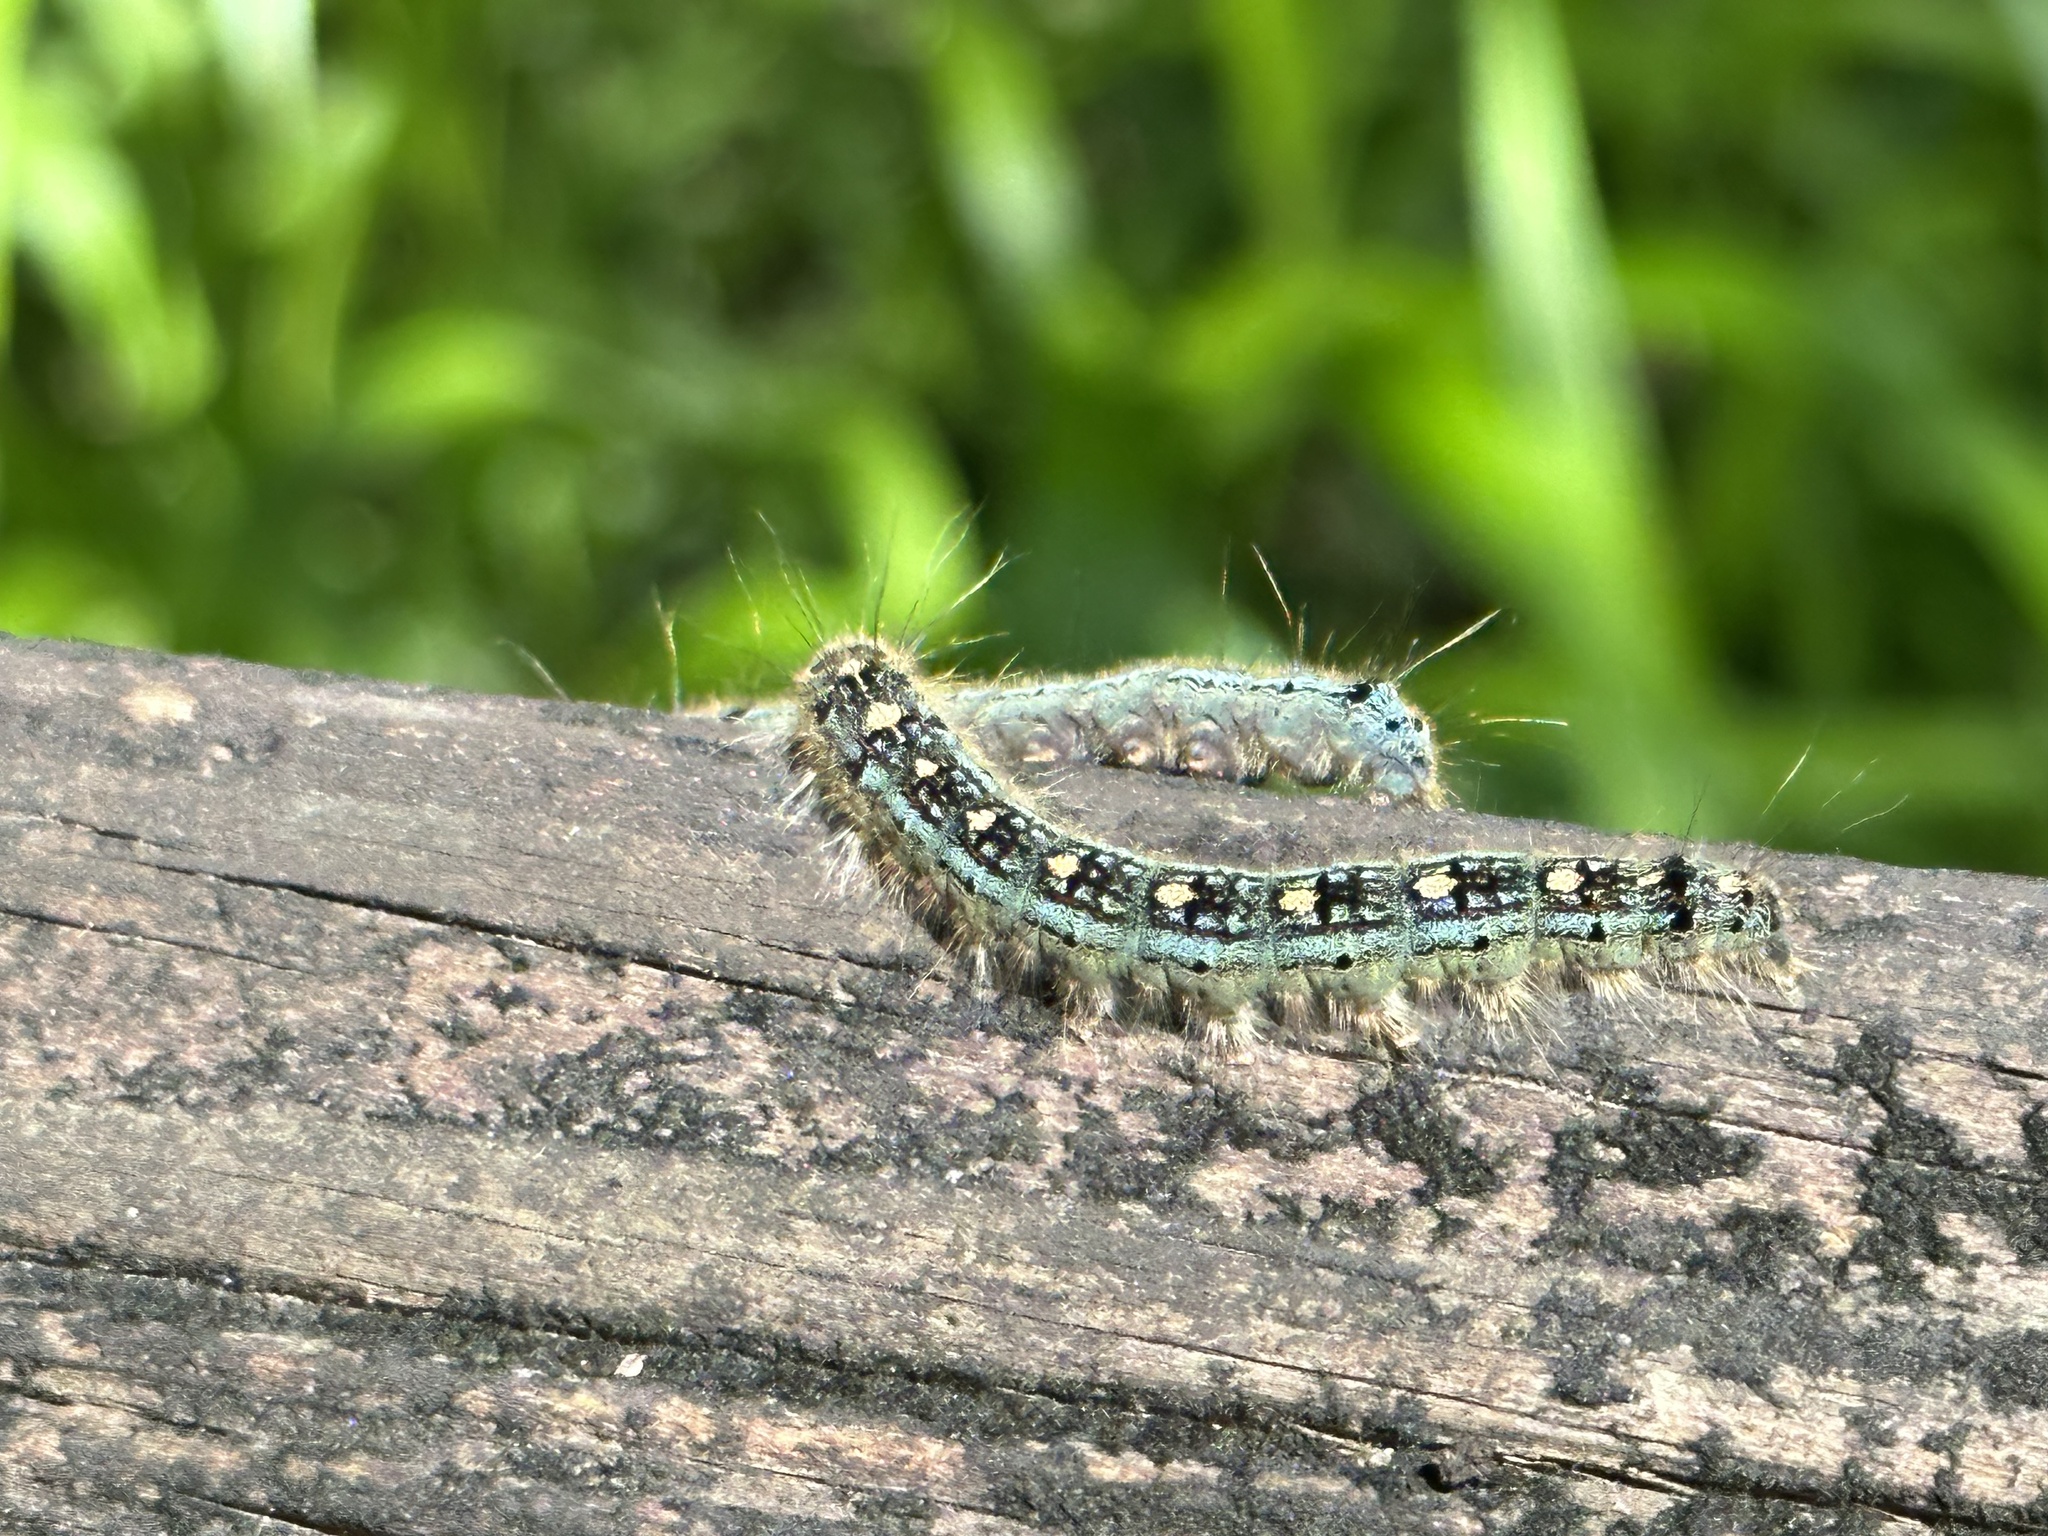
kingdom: Animalia
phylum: Arthropoda
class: Insecta
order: Lepidoptera
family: Lasiocampidae
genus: Malacosoma
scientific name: Malacosoma disstria
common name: Forest tent caterpillar
